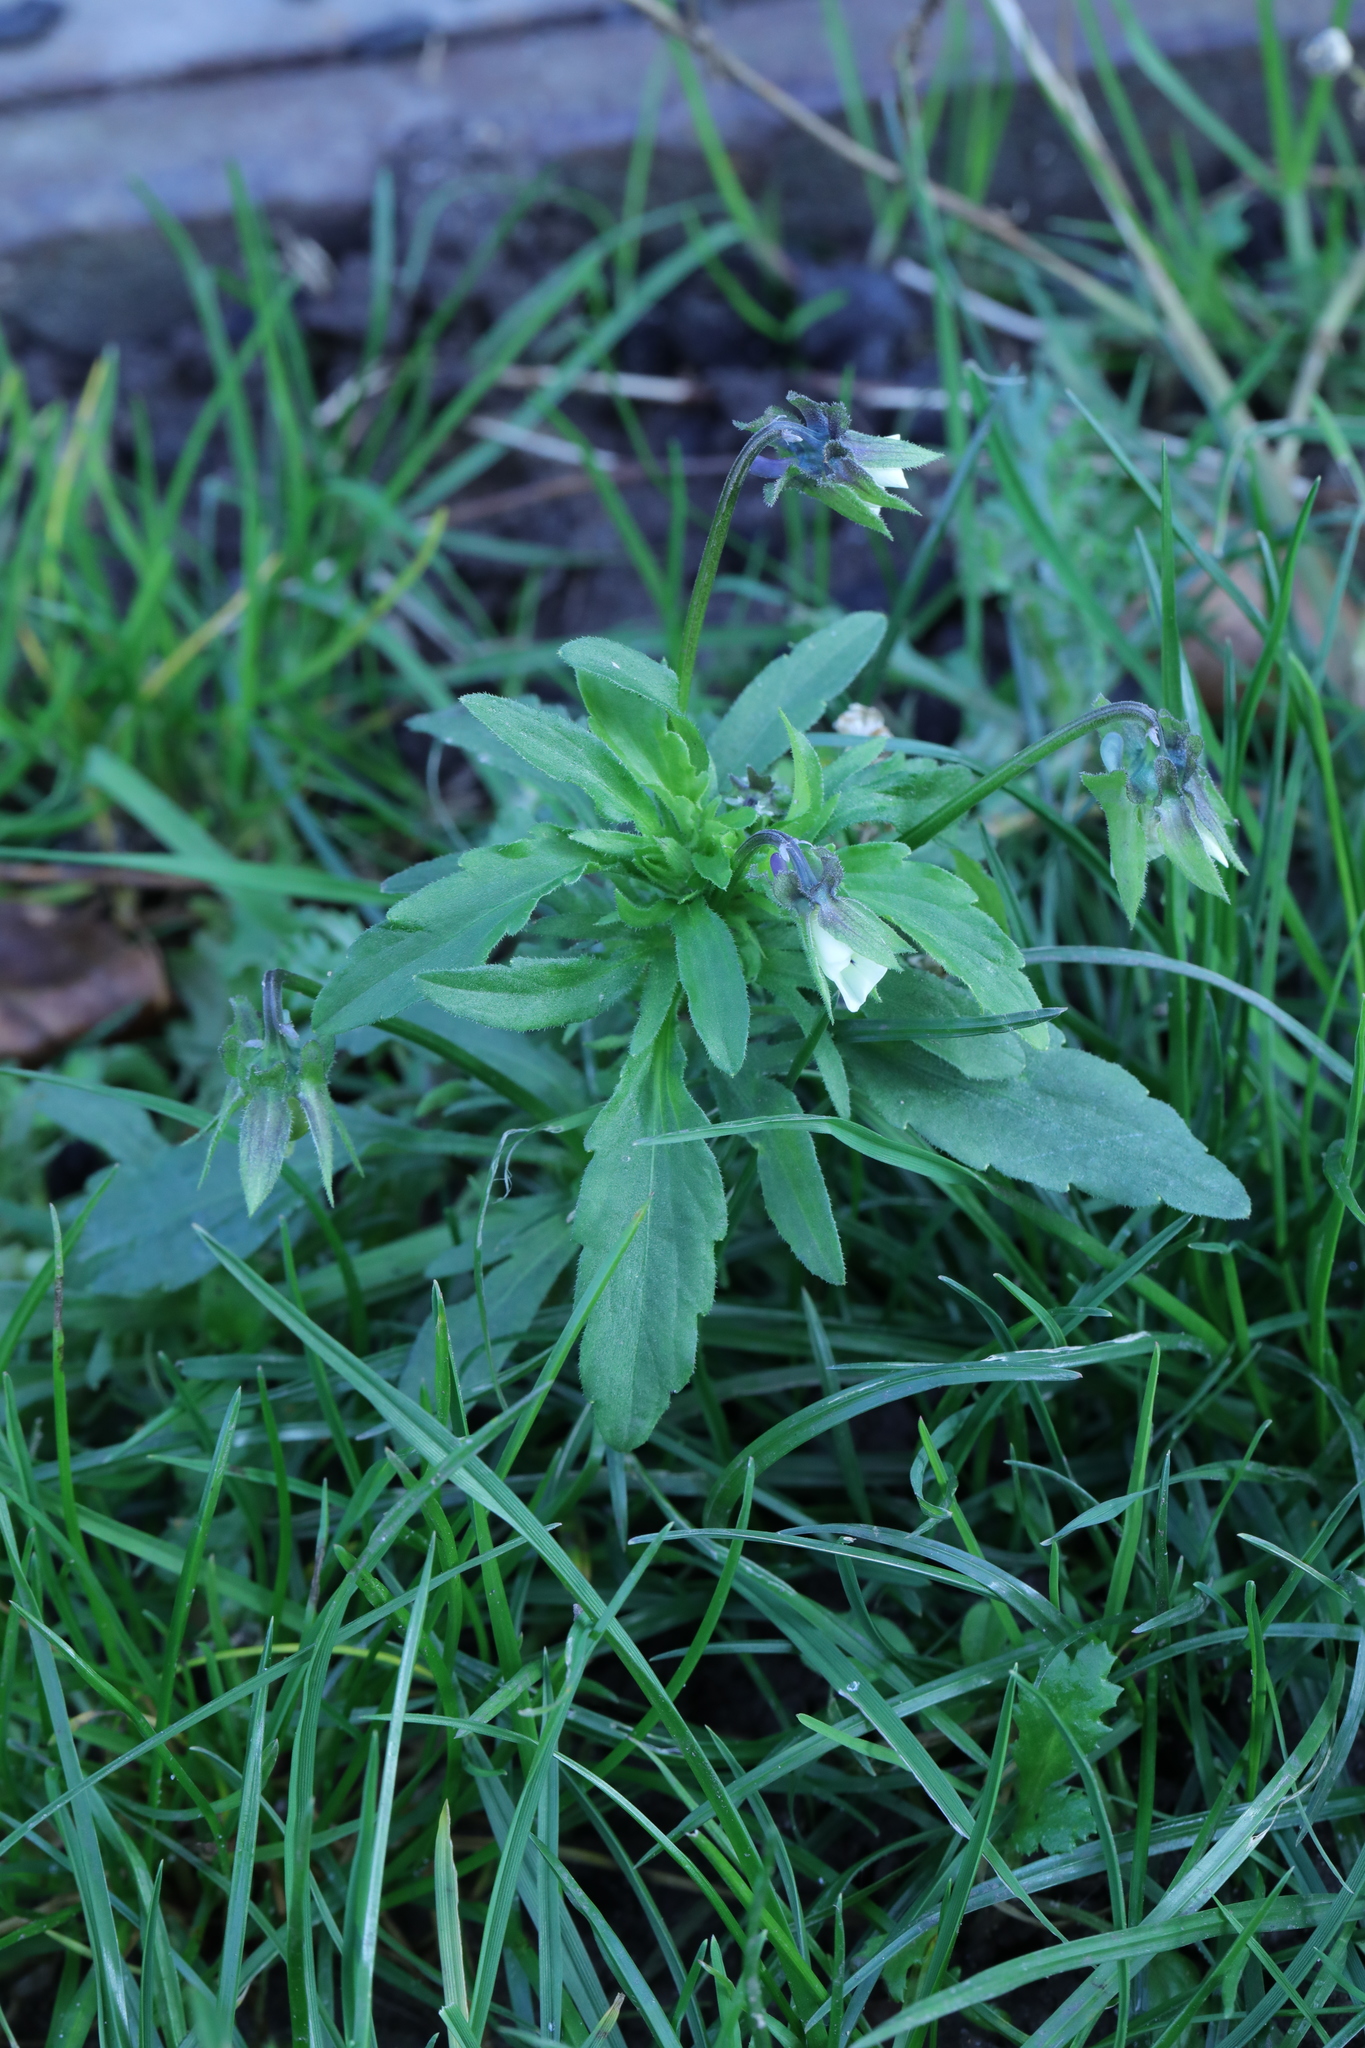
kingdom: Plantae
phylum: Tracheophyta
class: Magnoliopsida
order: Malpighiales
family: Violaceae
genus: Viola
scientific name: Viola arvensis
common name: Field pansy
